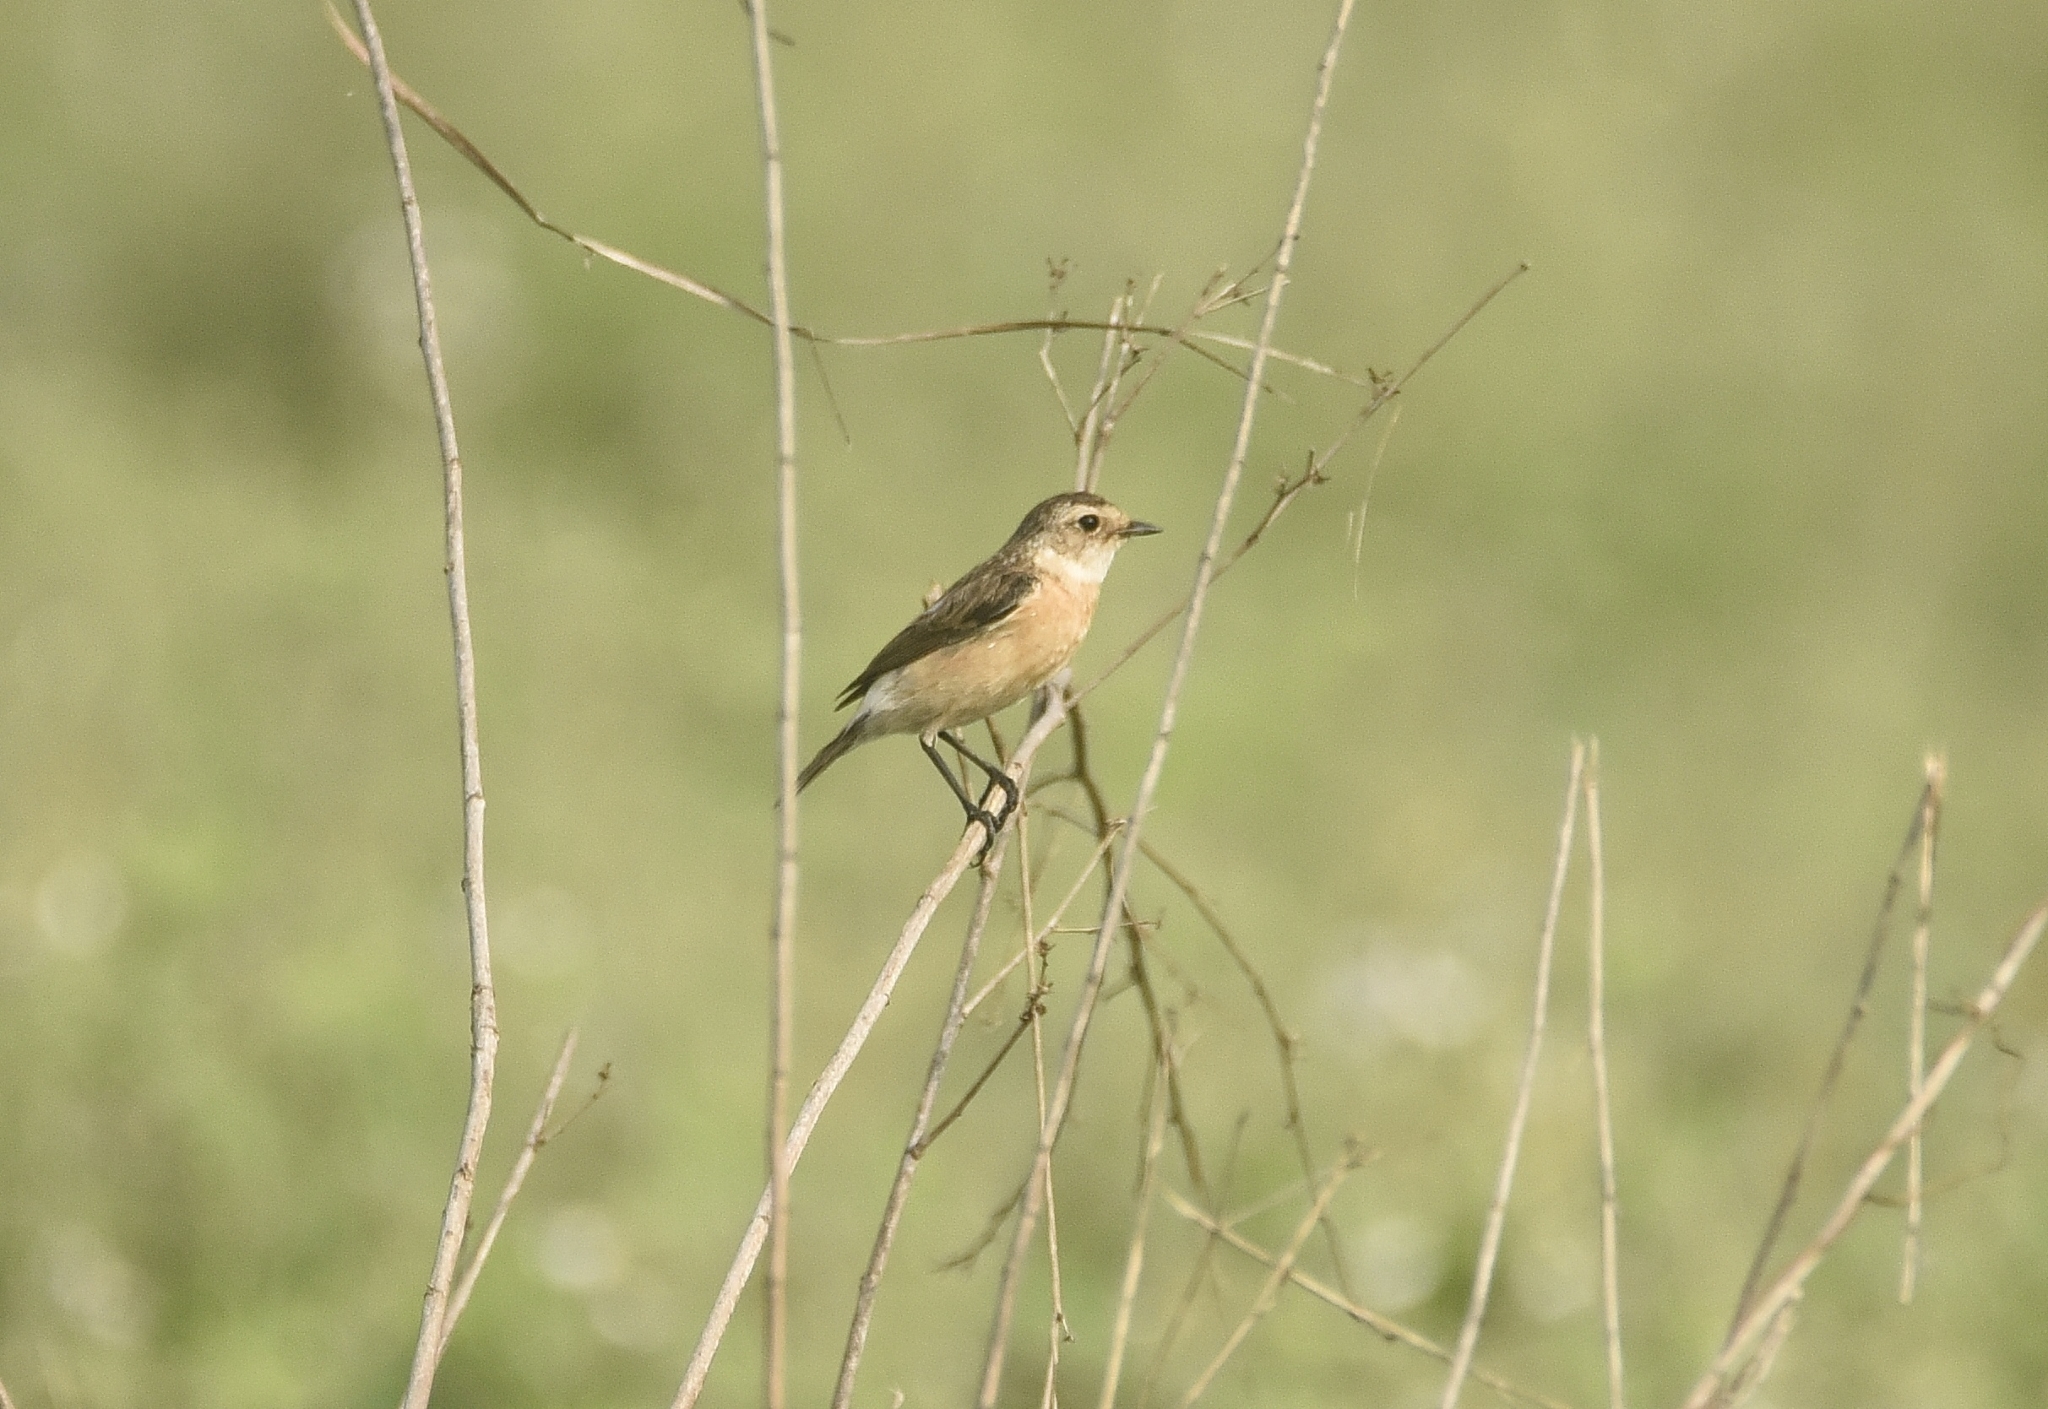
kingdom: Animalia
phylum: Chordata
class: Aves
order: Passeriformes
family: Muscicapidae
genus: Saxicola
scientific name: Saxicola maurus
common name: Siberian stonechat
